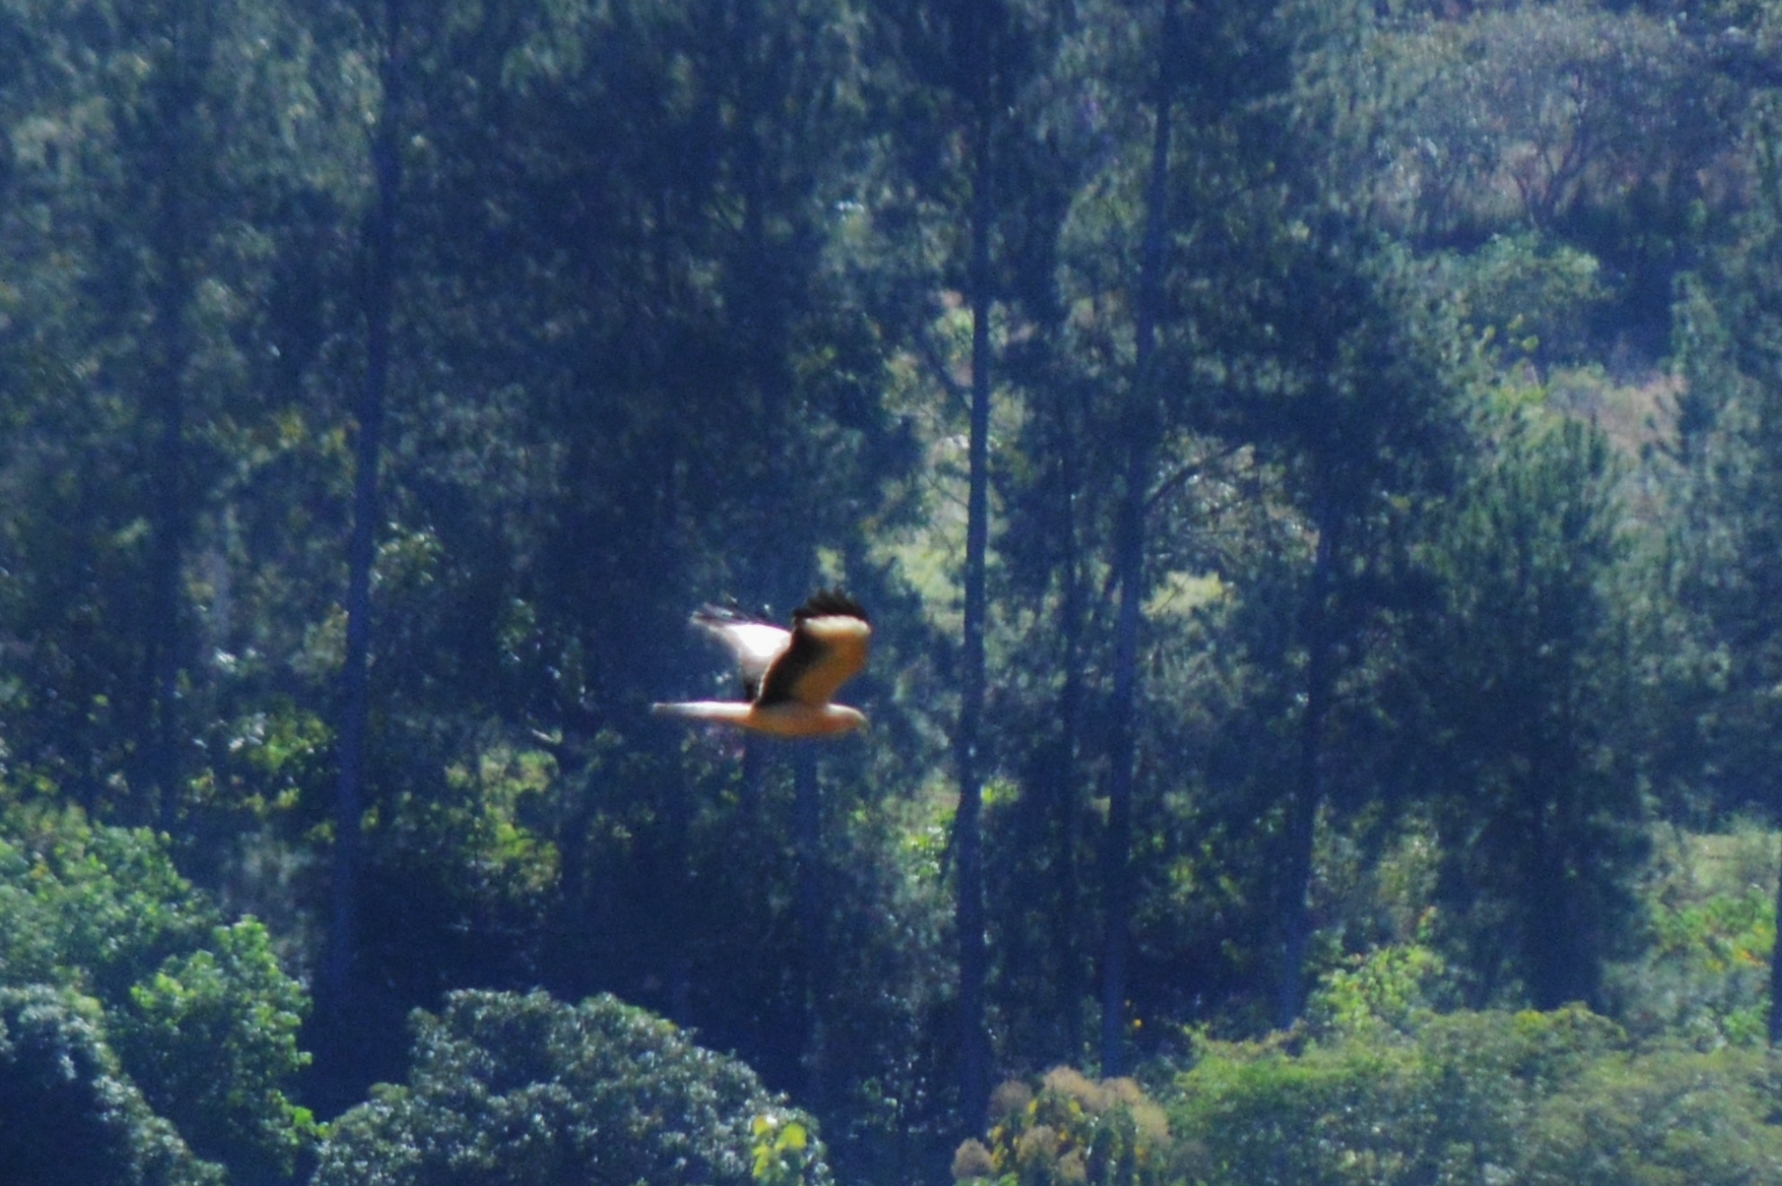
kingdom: Animalia
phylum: Chordata
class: Aves
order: Falconiformes
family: Falconidae
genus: Daptrius
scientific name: Daptrius
